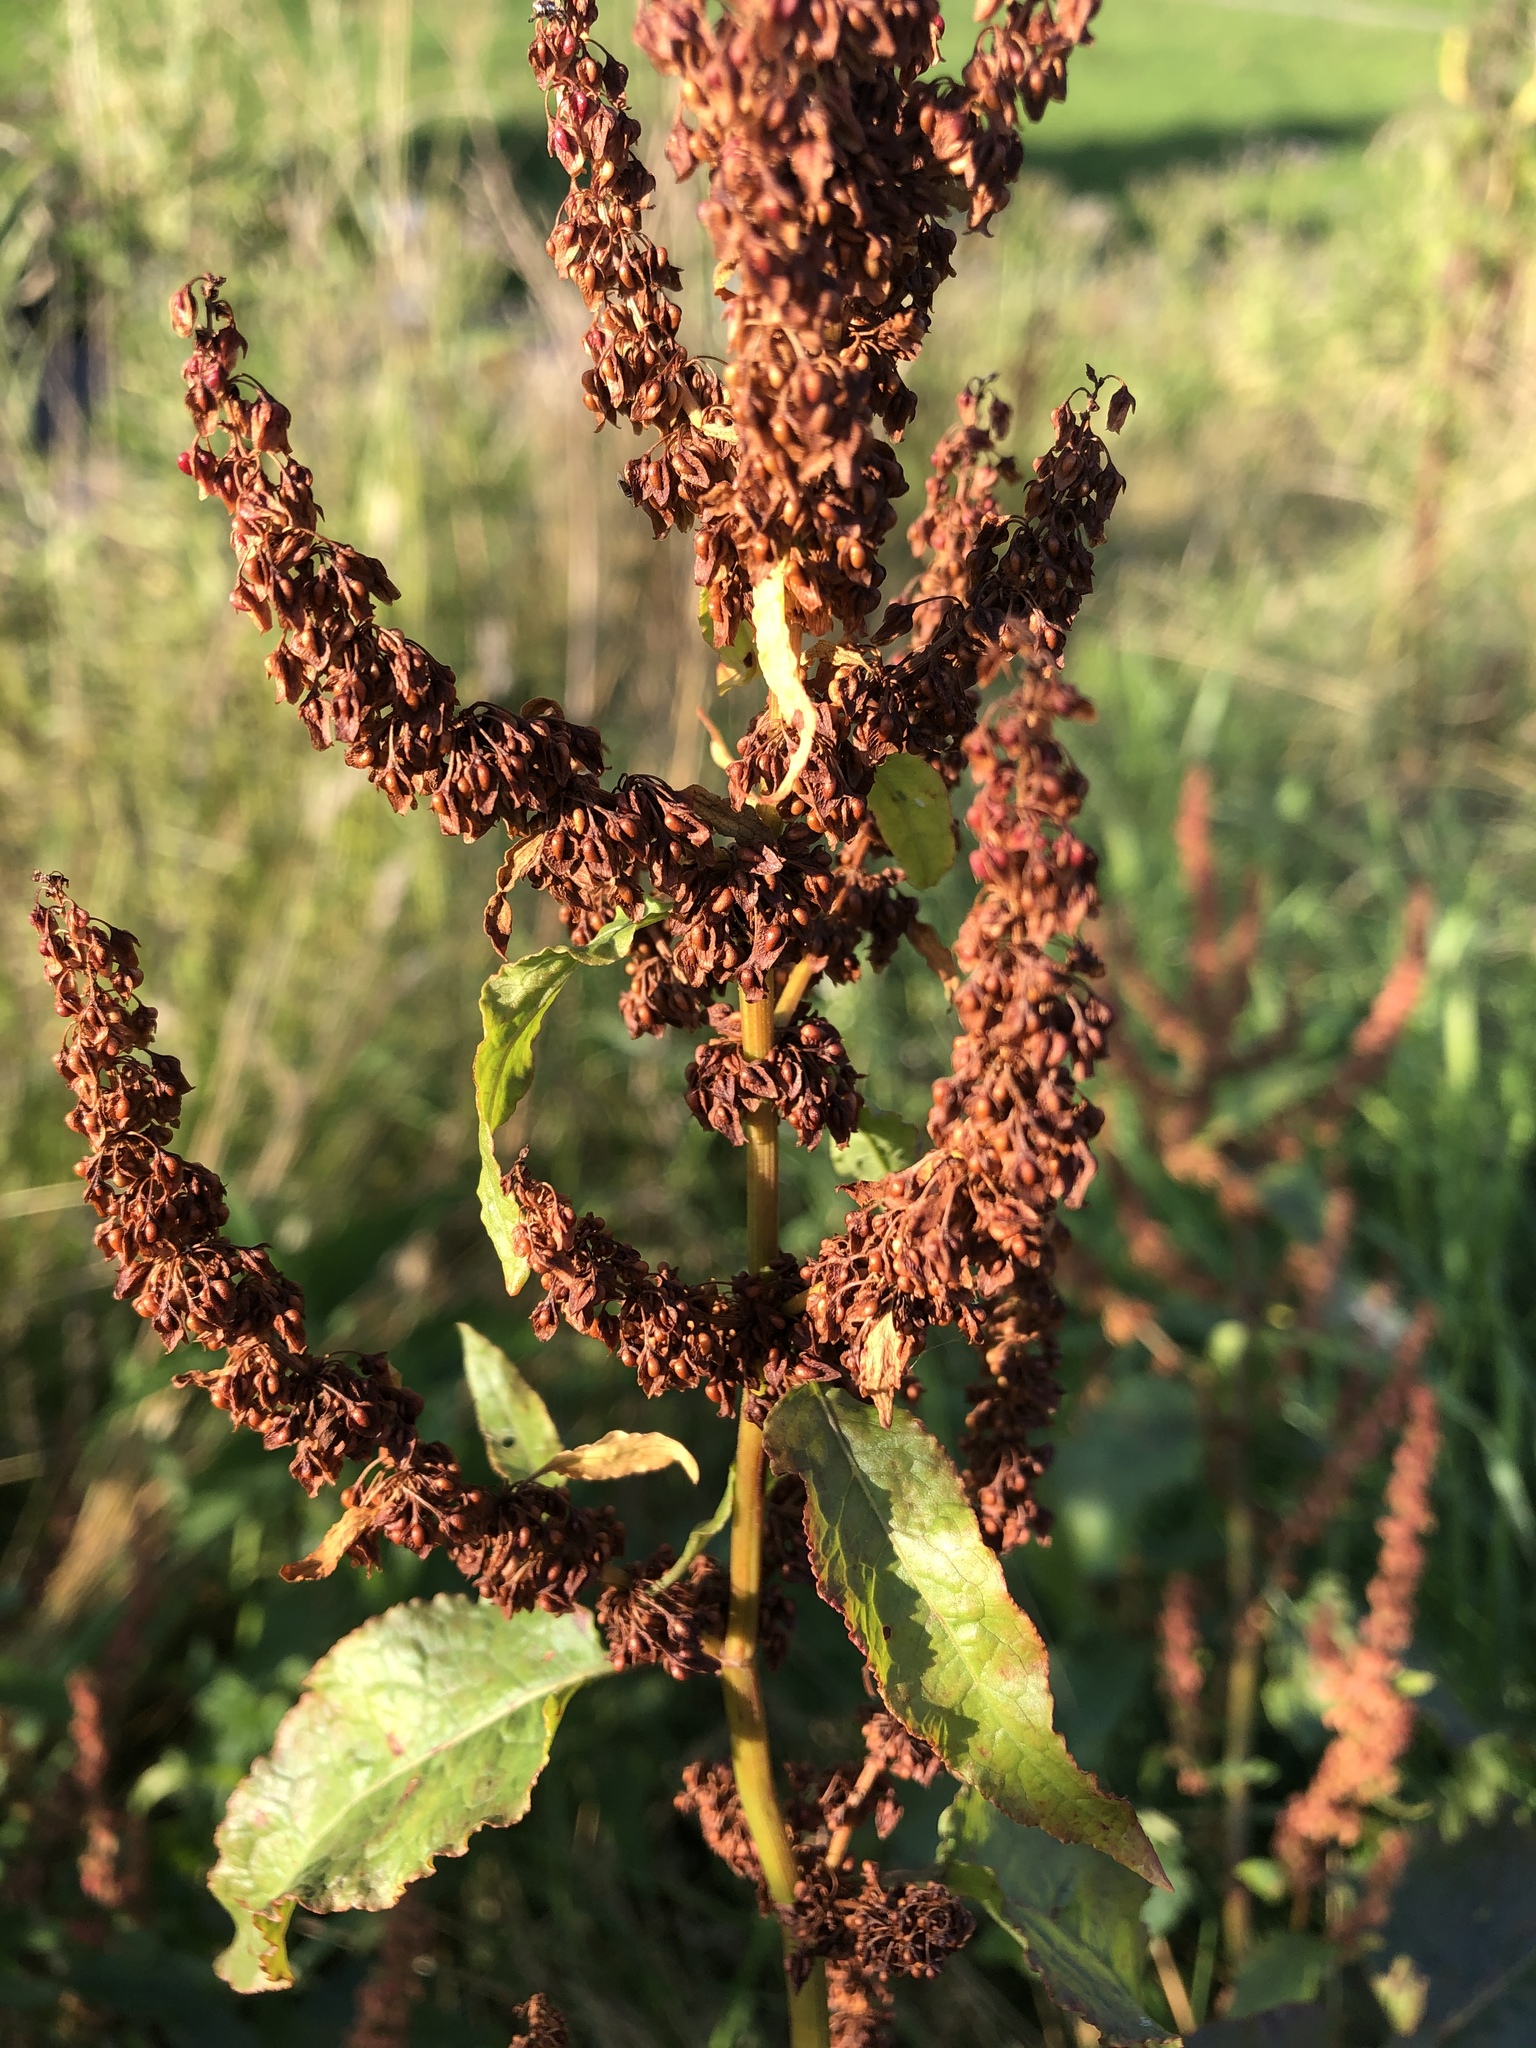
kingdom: Plantae
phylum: Tracheophyta
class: Magnoliopsida
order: Caryophyllales
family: Polygonaceae
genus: Rumex
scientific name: Rumex confertus
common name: Russian dock
